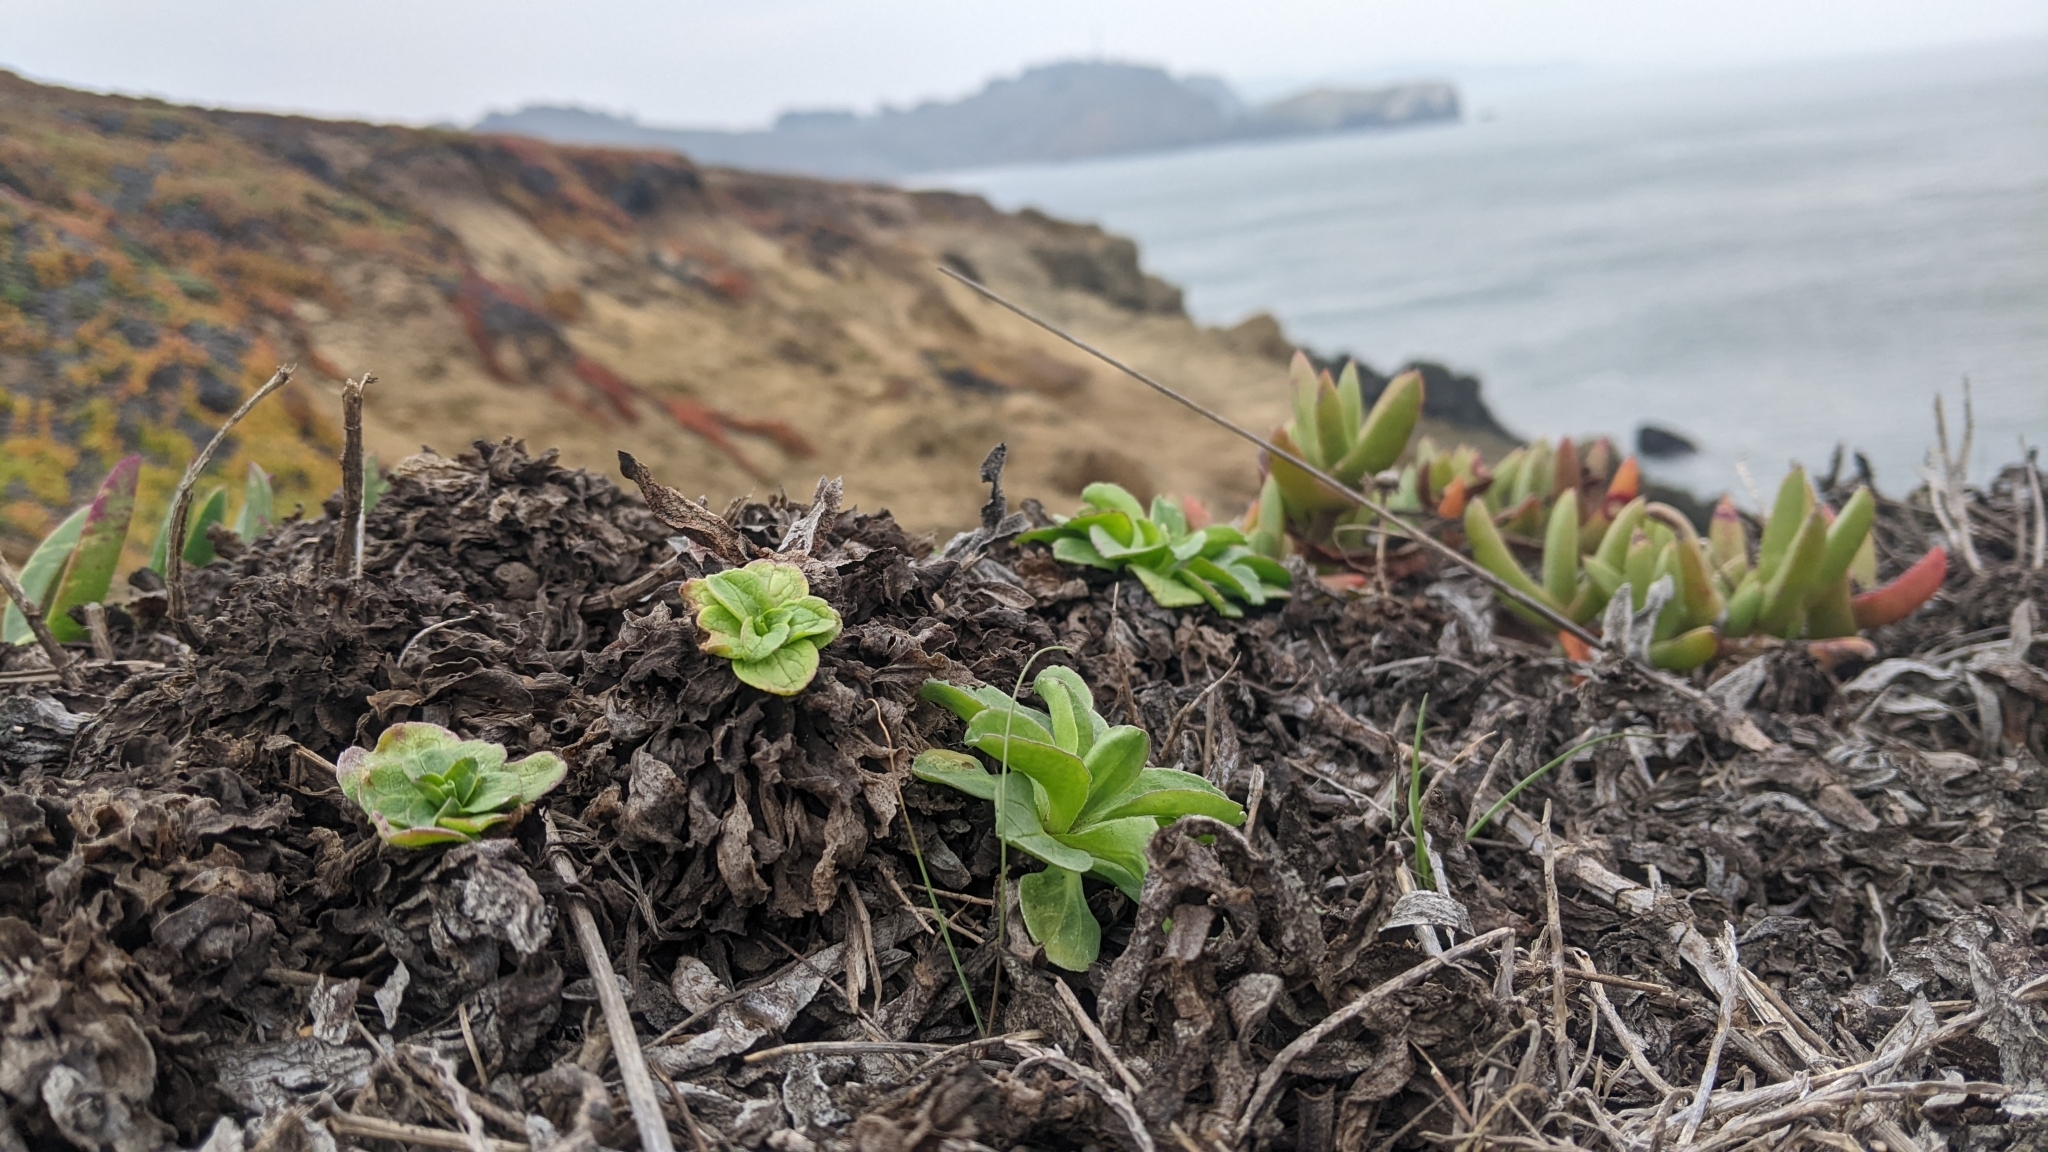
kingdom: Plantae
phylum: Tracheophyta
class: Magnoliopsida
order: Asterales
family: Asteraceae
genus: Erigeron
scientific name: Erigeron glaucus
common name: Seaside daisy
